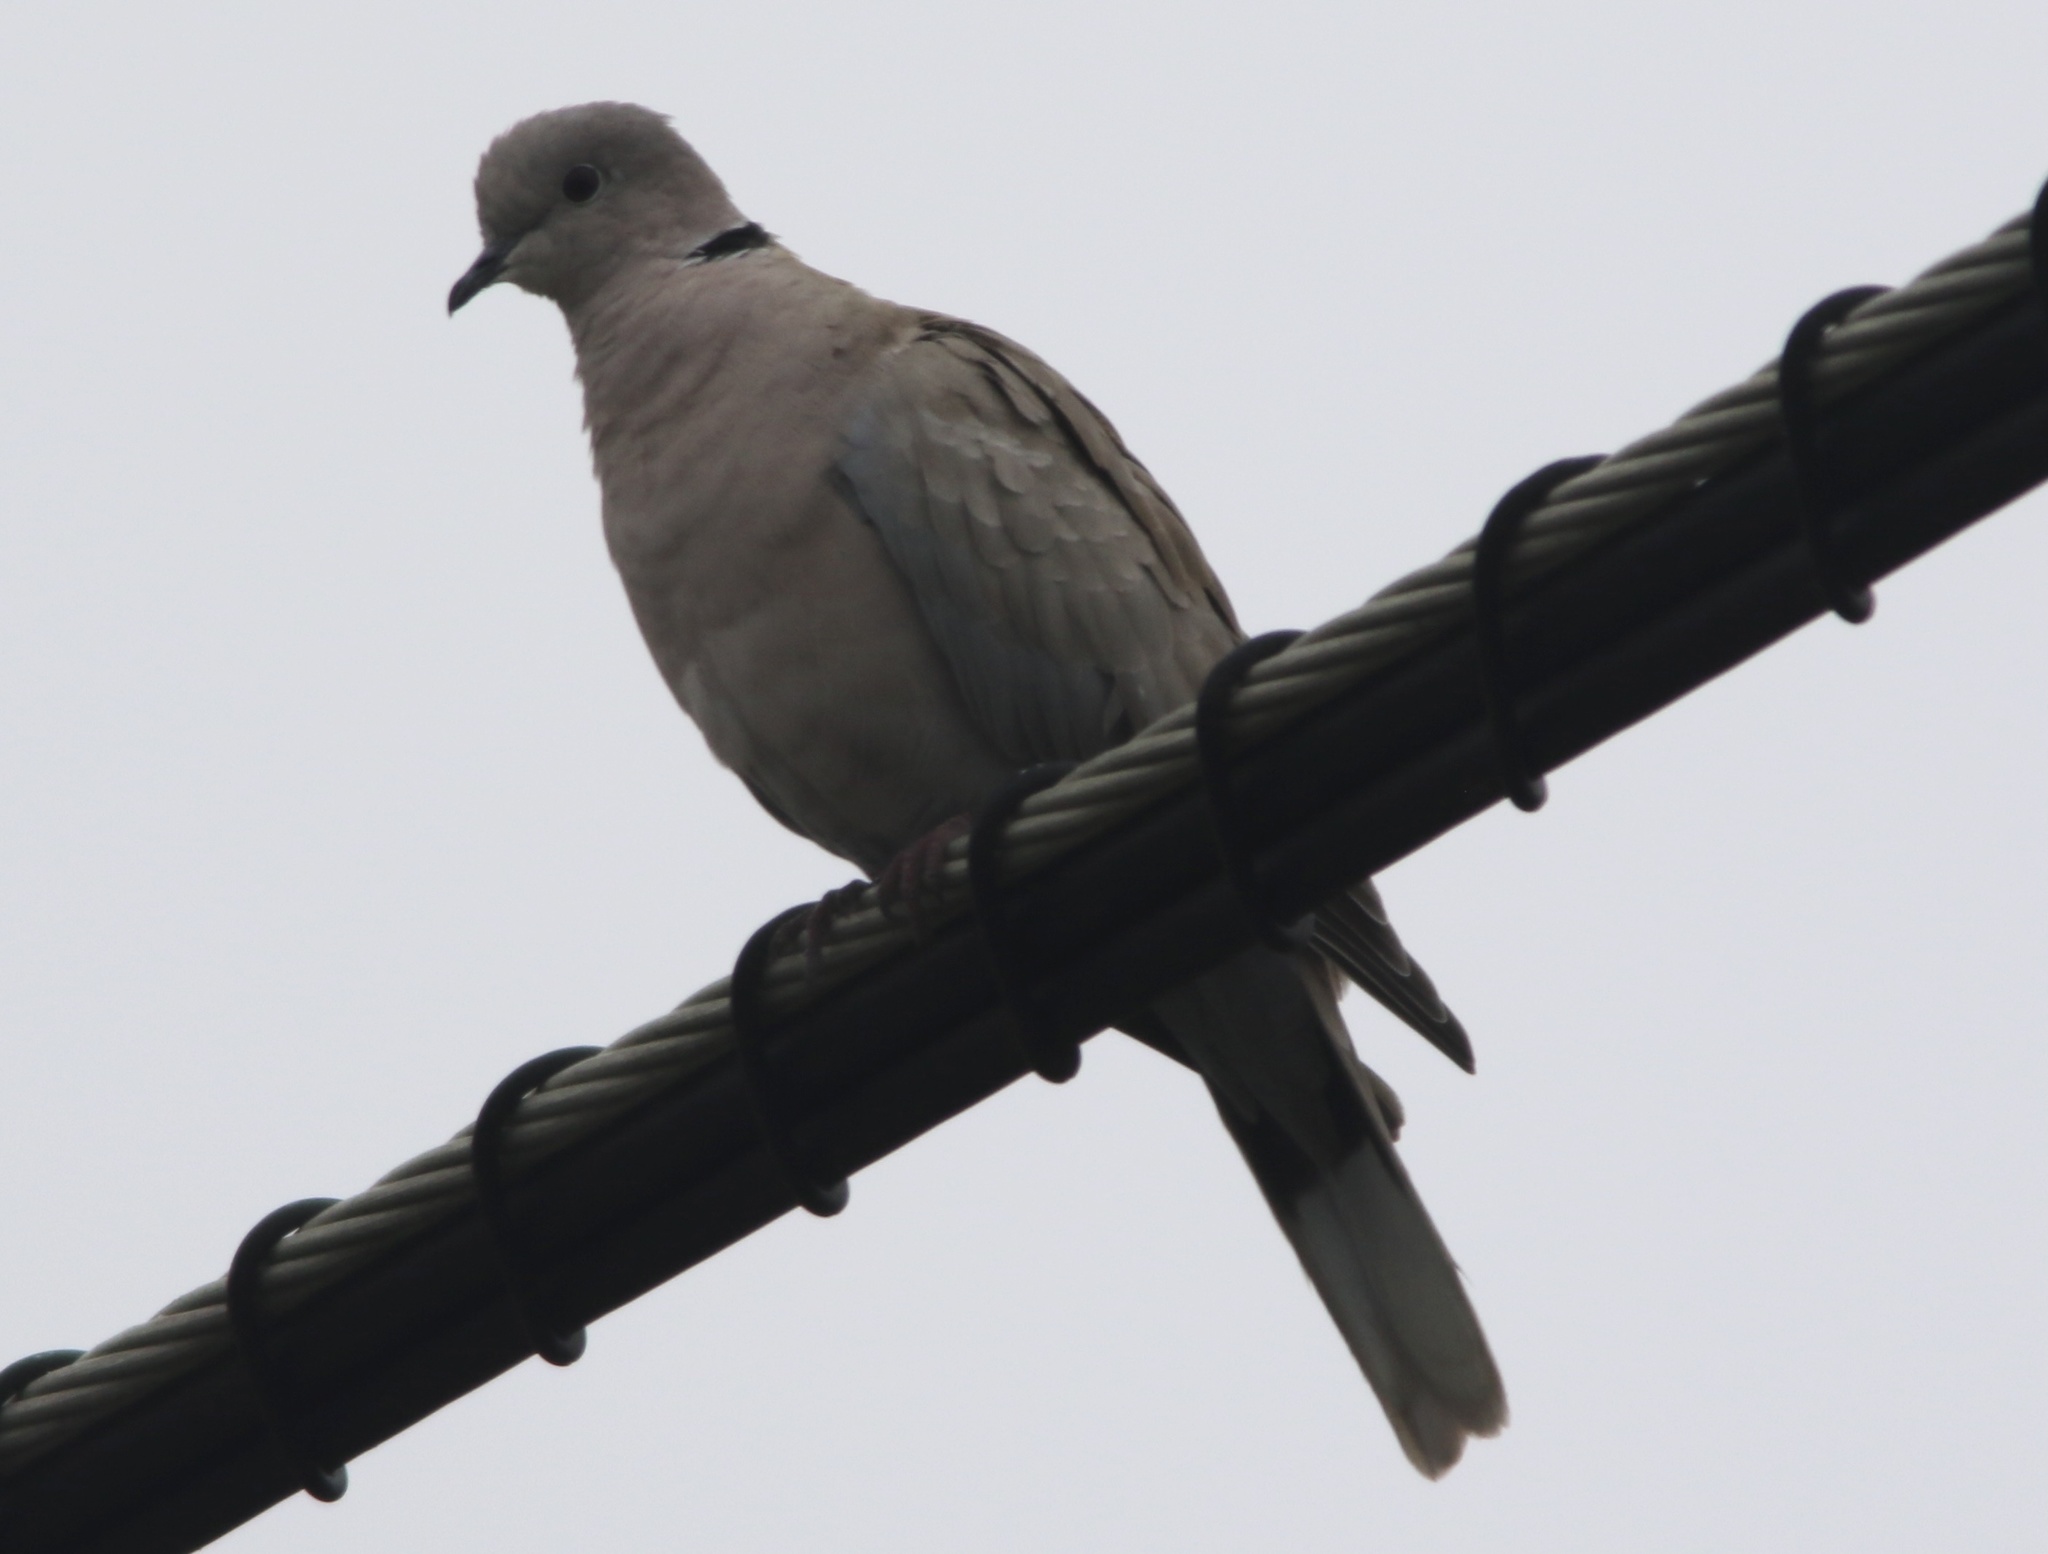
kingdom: Animalia
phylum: Chordata
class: Aves
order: Columbiformes
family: Columbidae
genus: Streptopelia
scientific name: Streptopelia decaocto
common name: Eurasian collared dove
